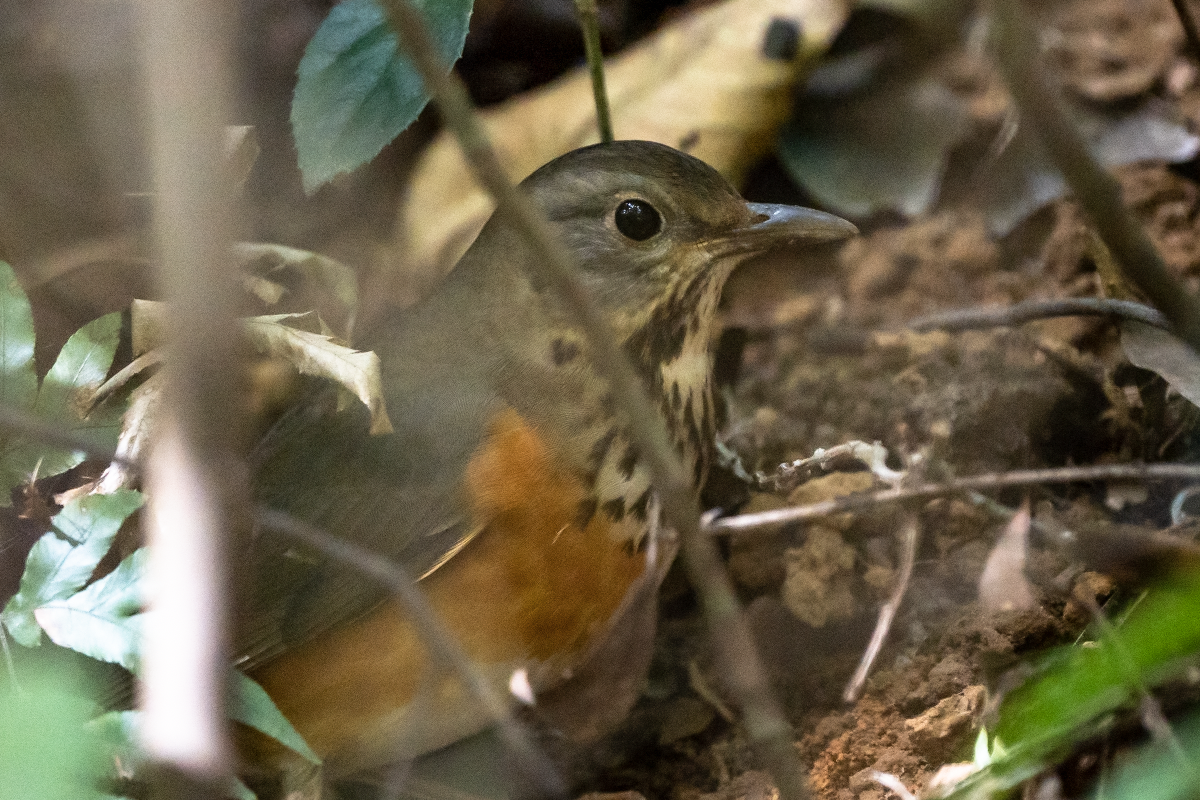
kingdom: Animalia
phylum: Chordata
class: Aves
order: Passeriformes
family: Turdidae
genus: Turdus
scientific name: Turdus hortulorum
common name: Grey-backed thrush
